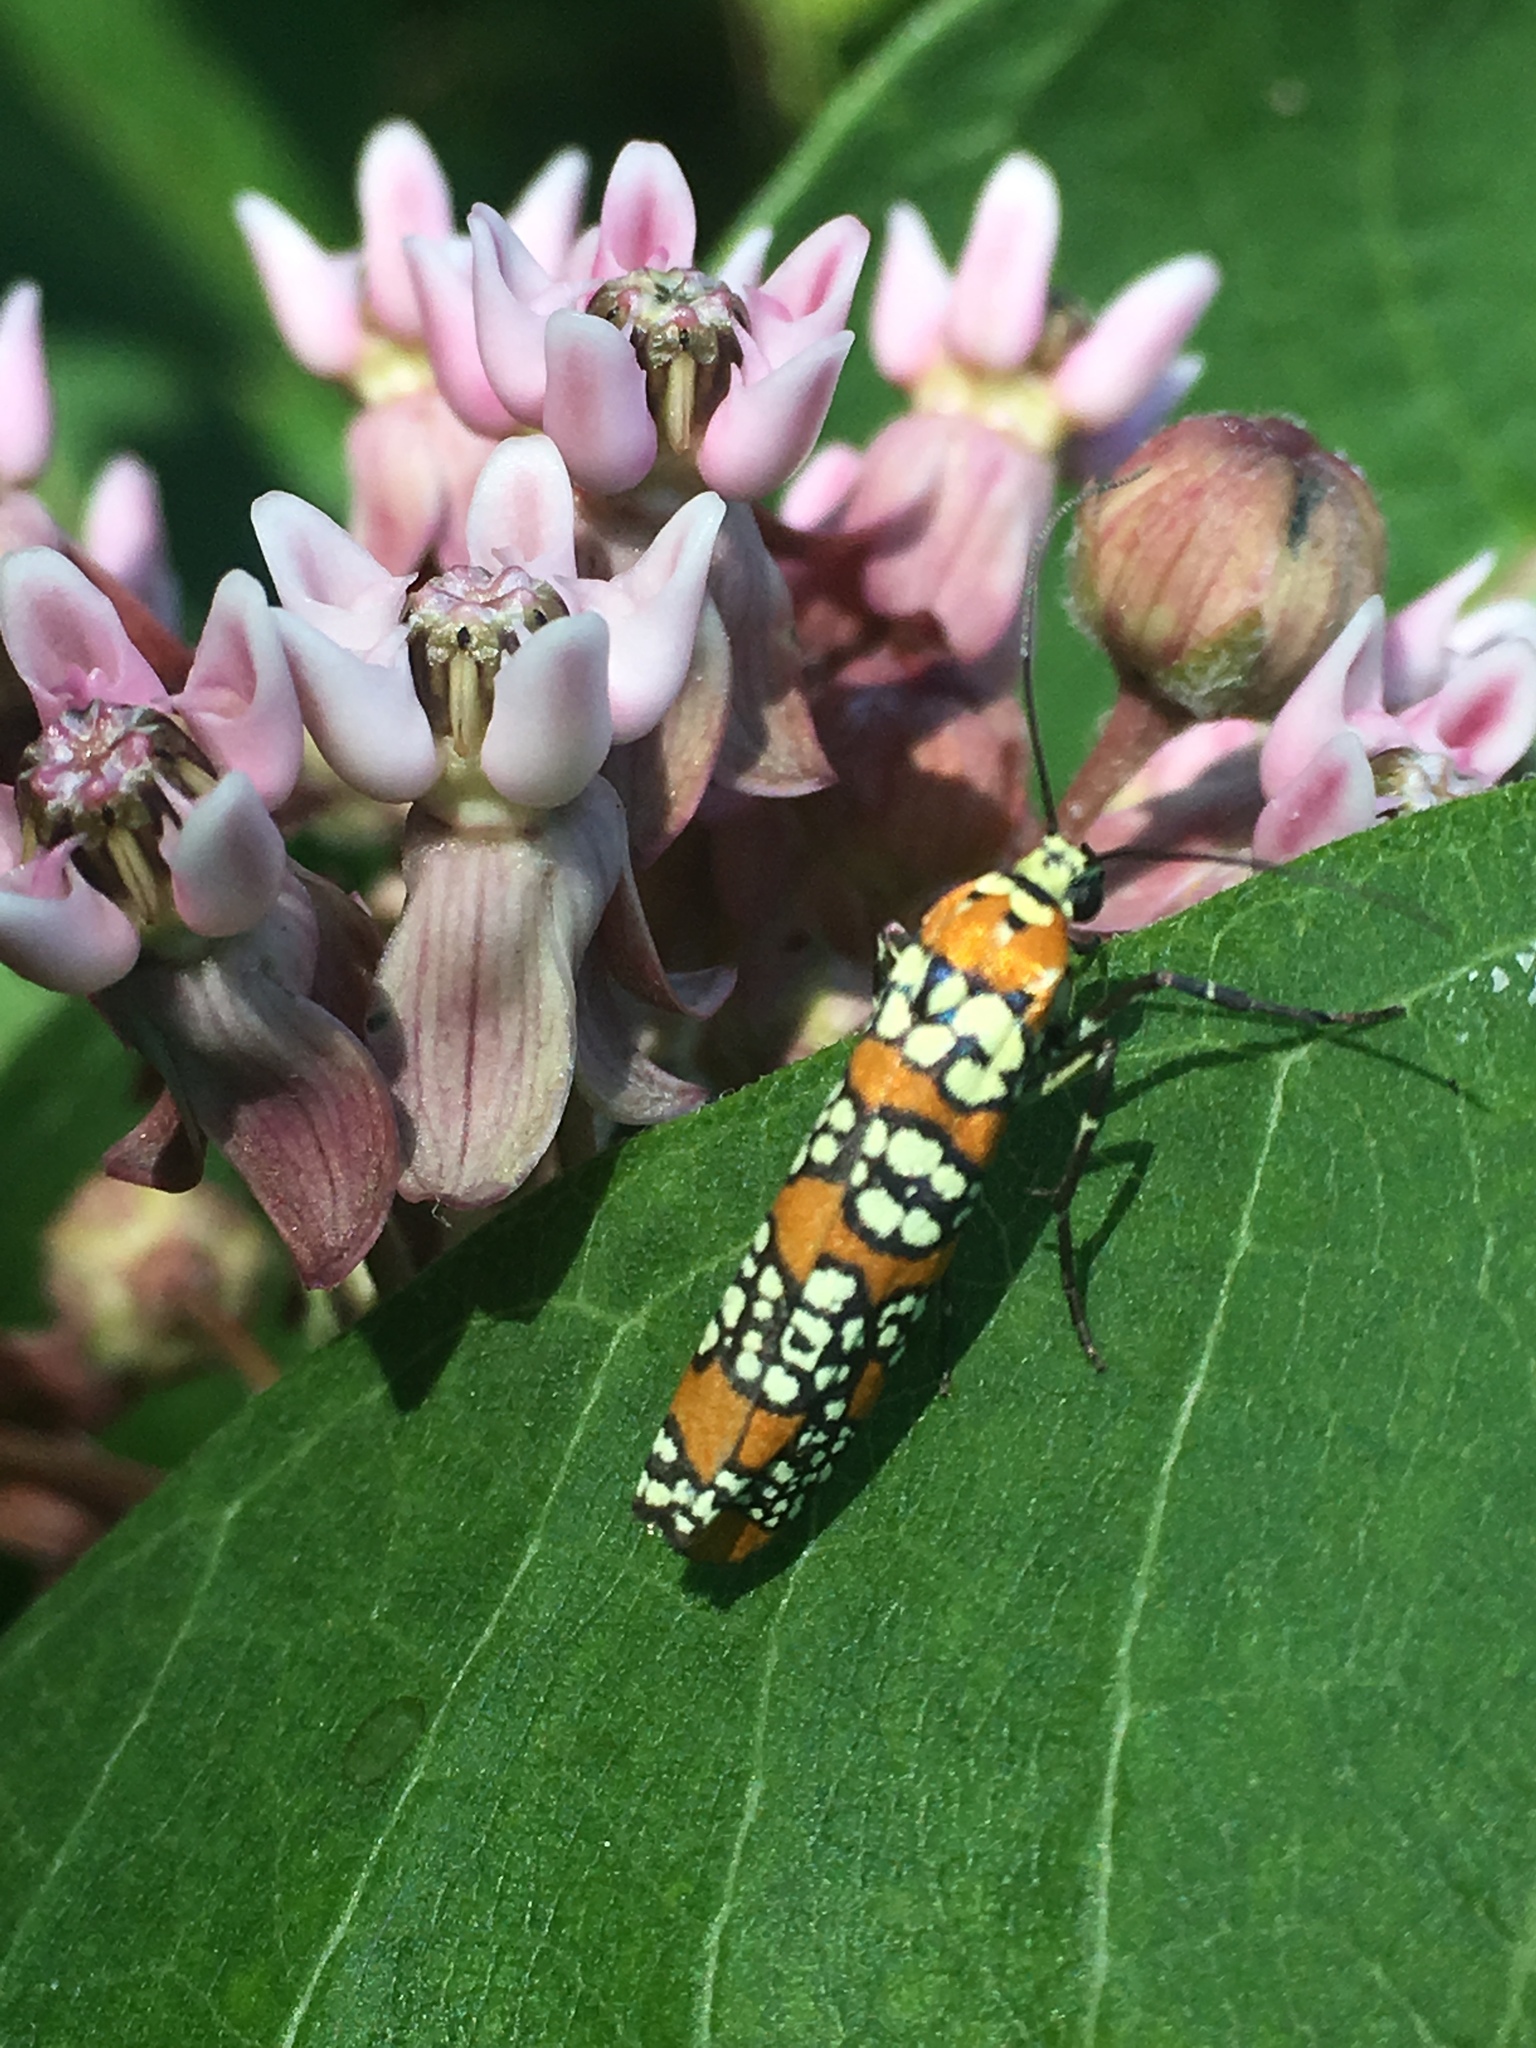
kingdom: Animalia
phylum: Arthropoda
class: Insecta
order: Lepidoptera
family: Attevidae
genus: Atteva
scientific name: Atteva punctella
